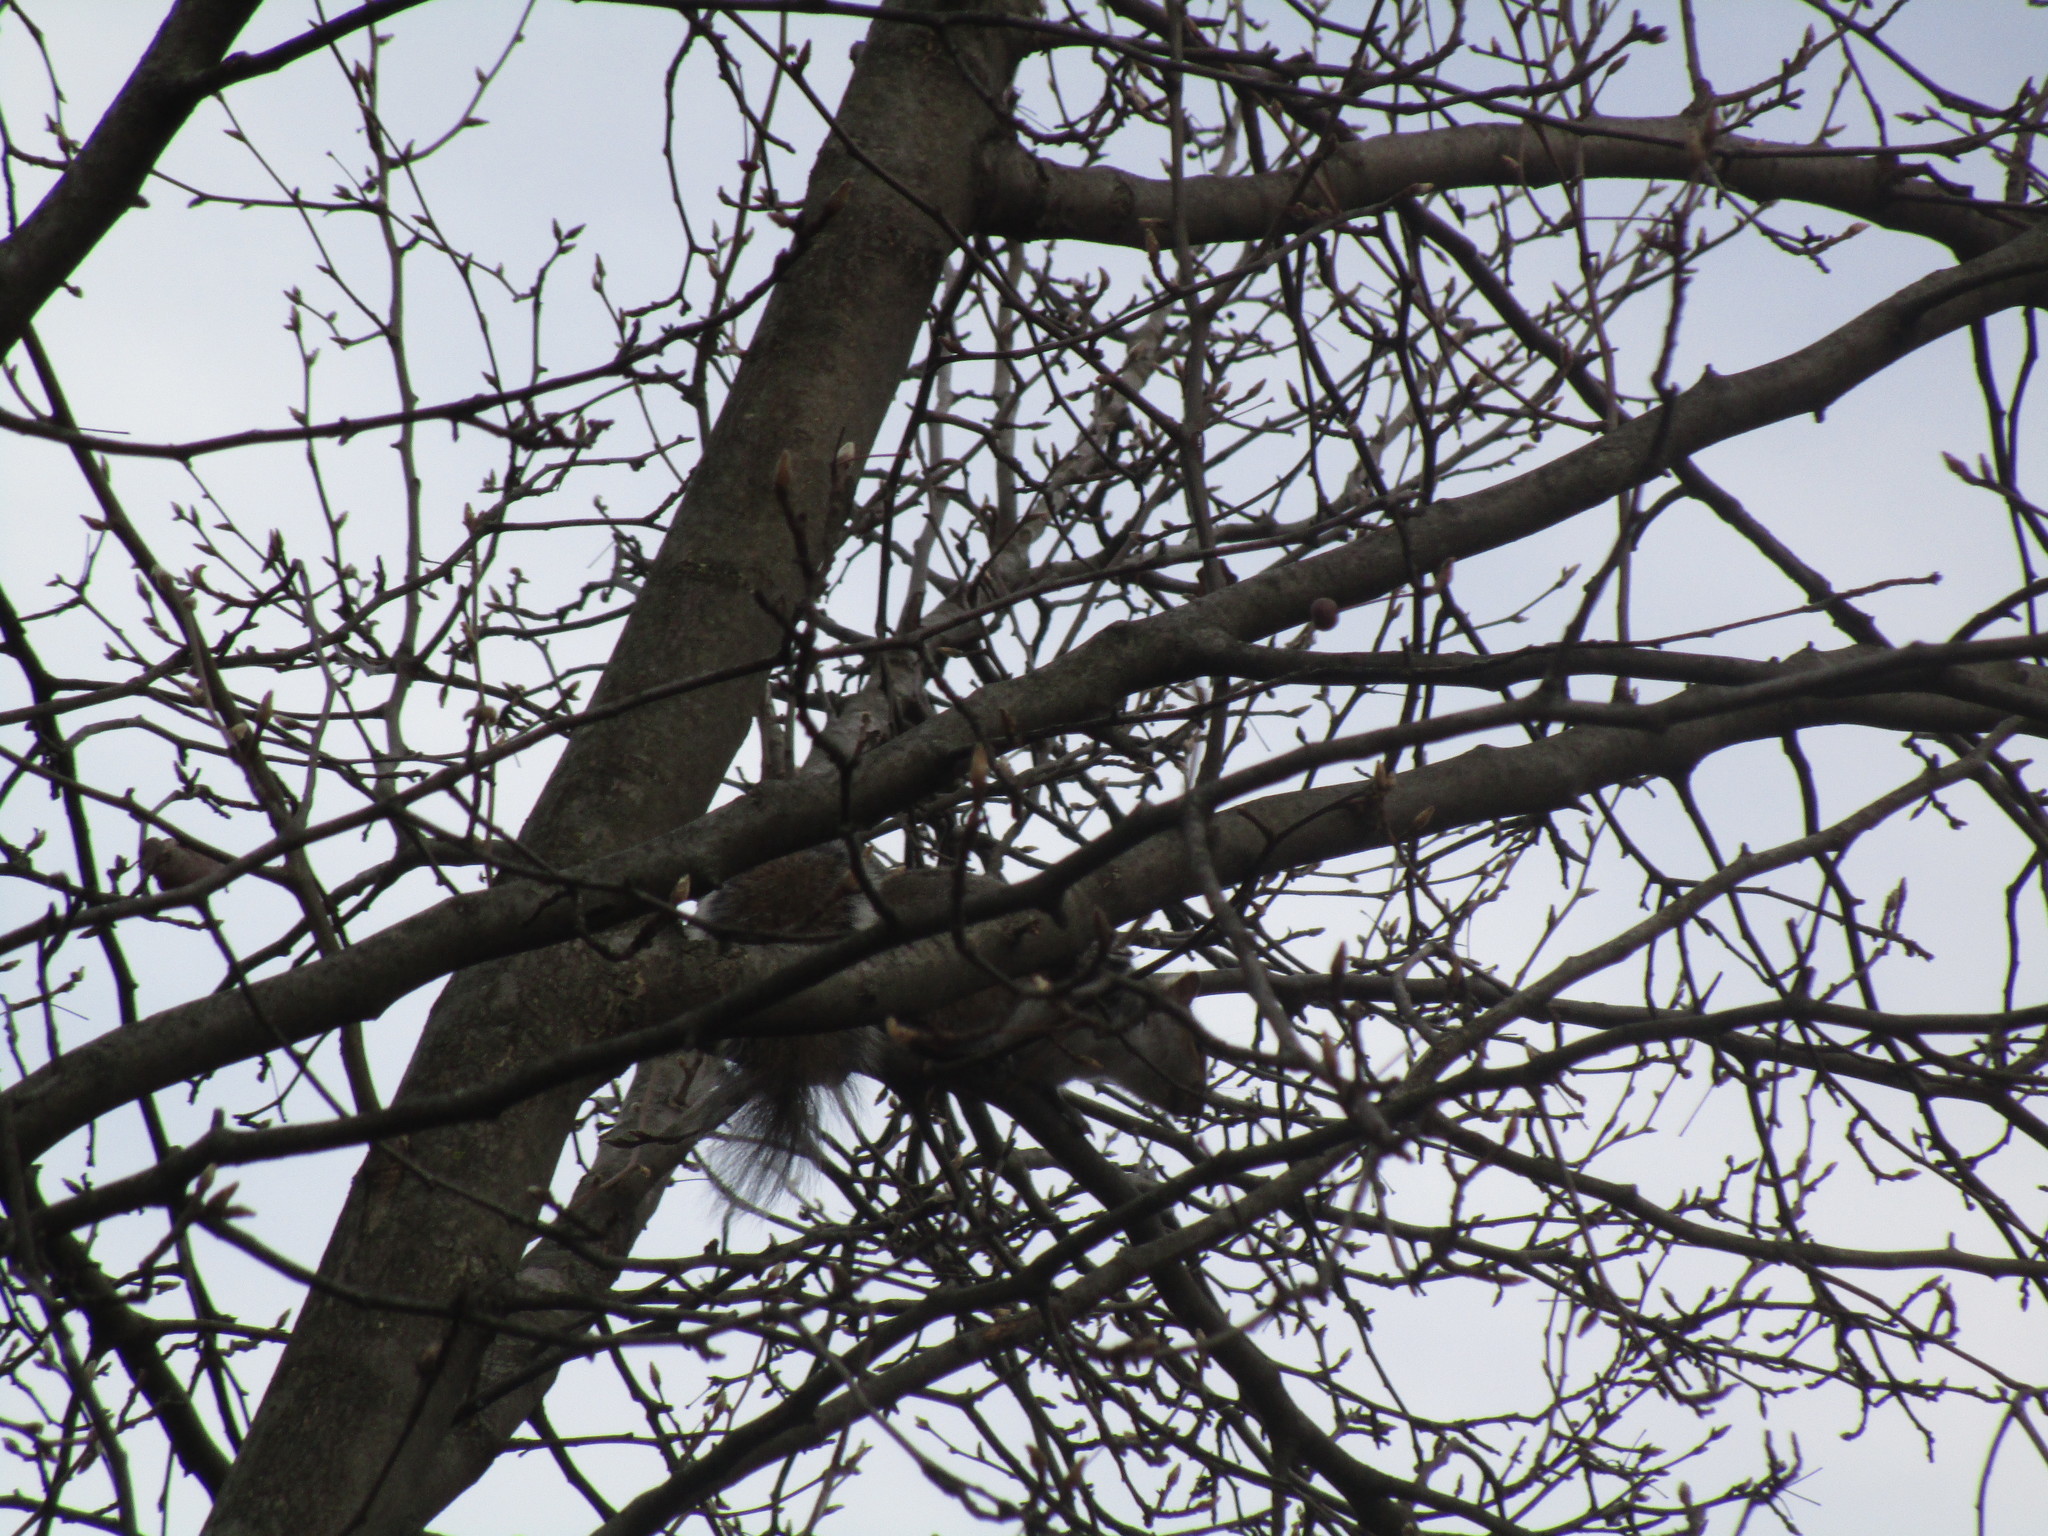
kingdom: Animalia
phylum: Chordata
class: Mammalia
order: Rodentia
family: Sciuridae
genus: Sciurus
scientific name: Sciurus carolinensis
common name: Eastern gray squirrel
